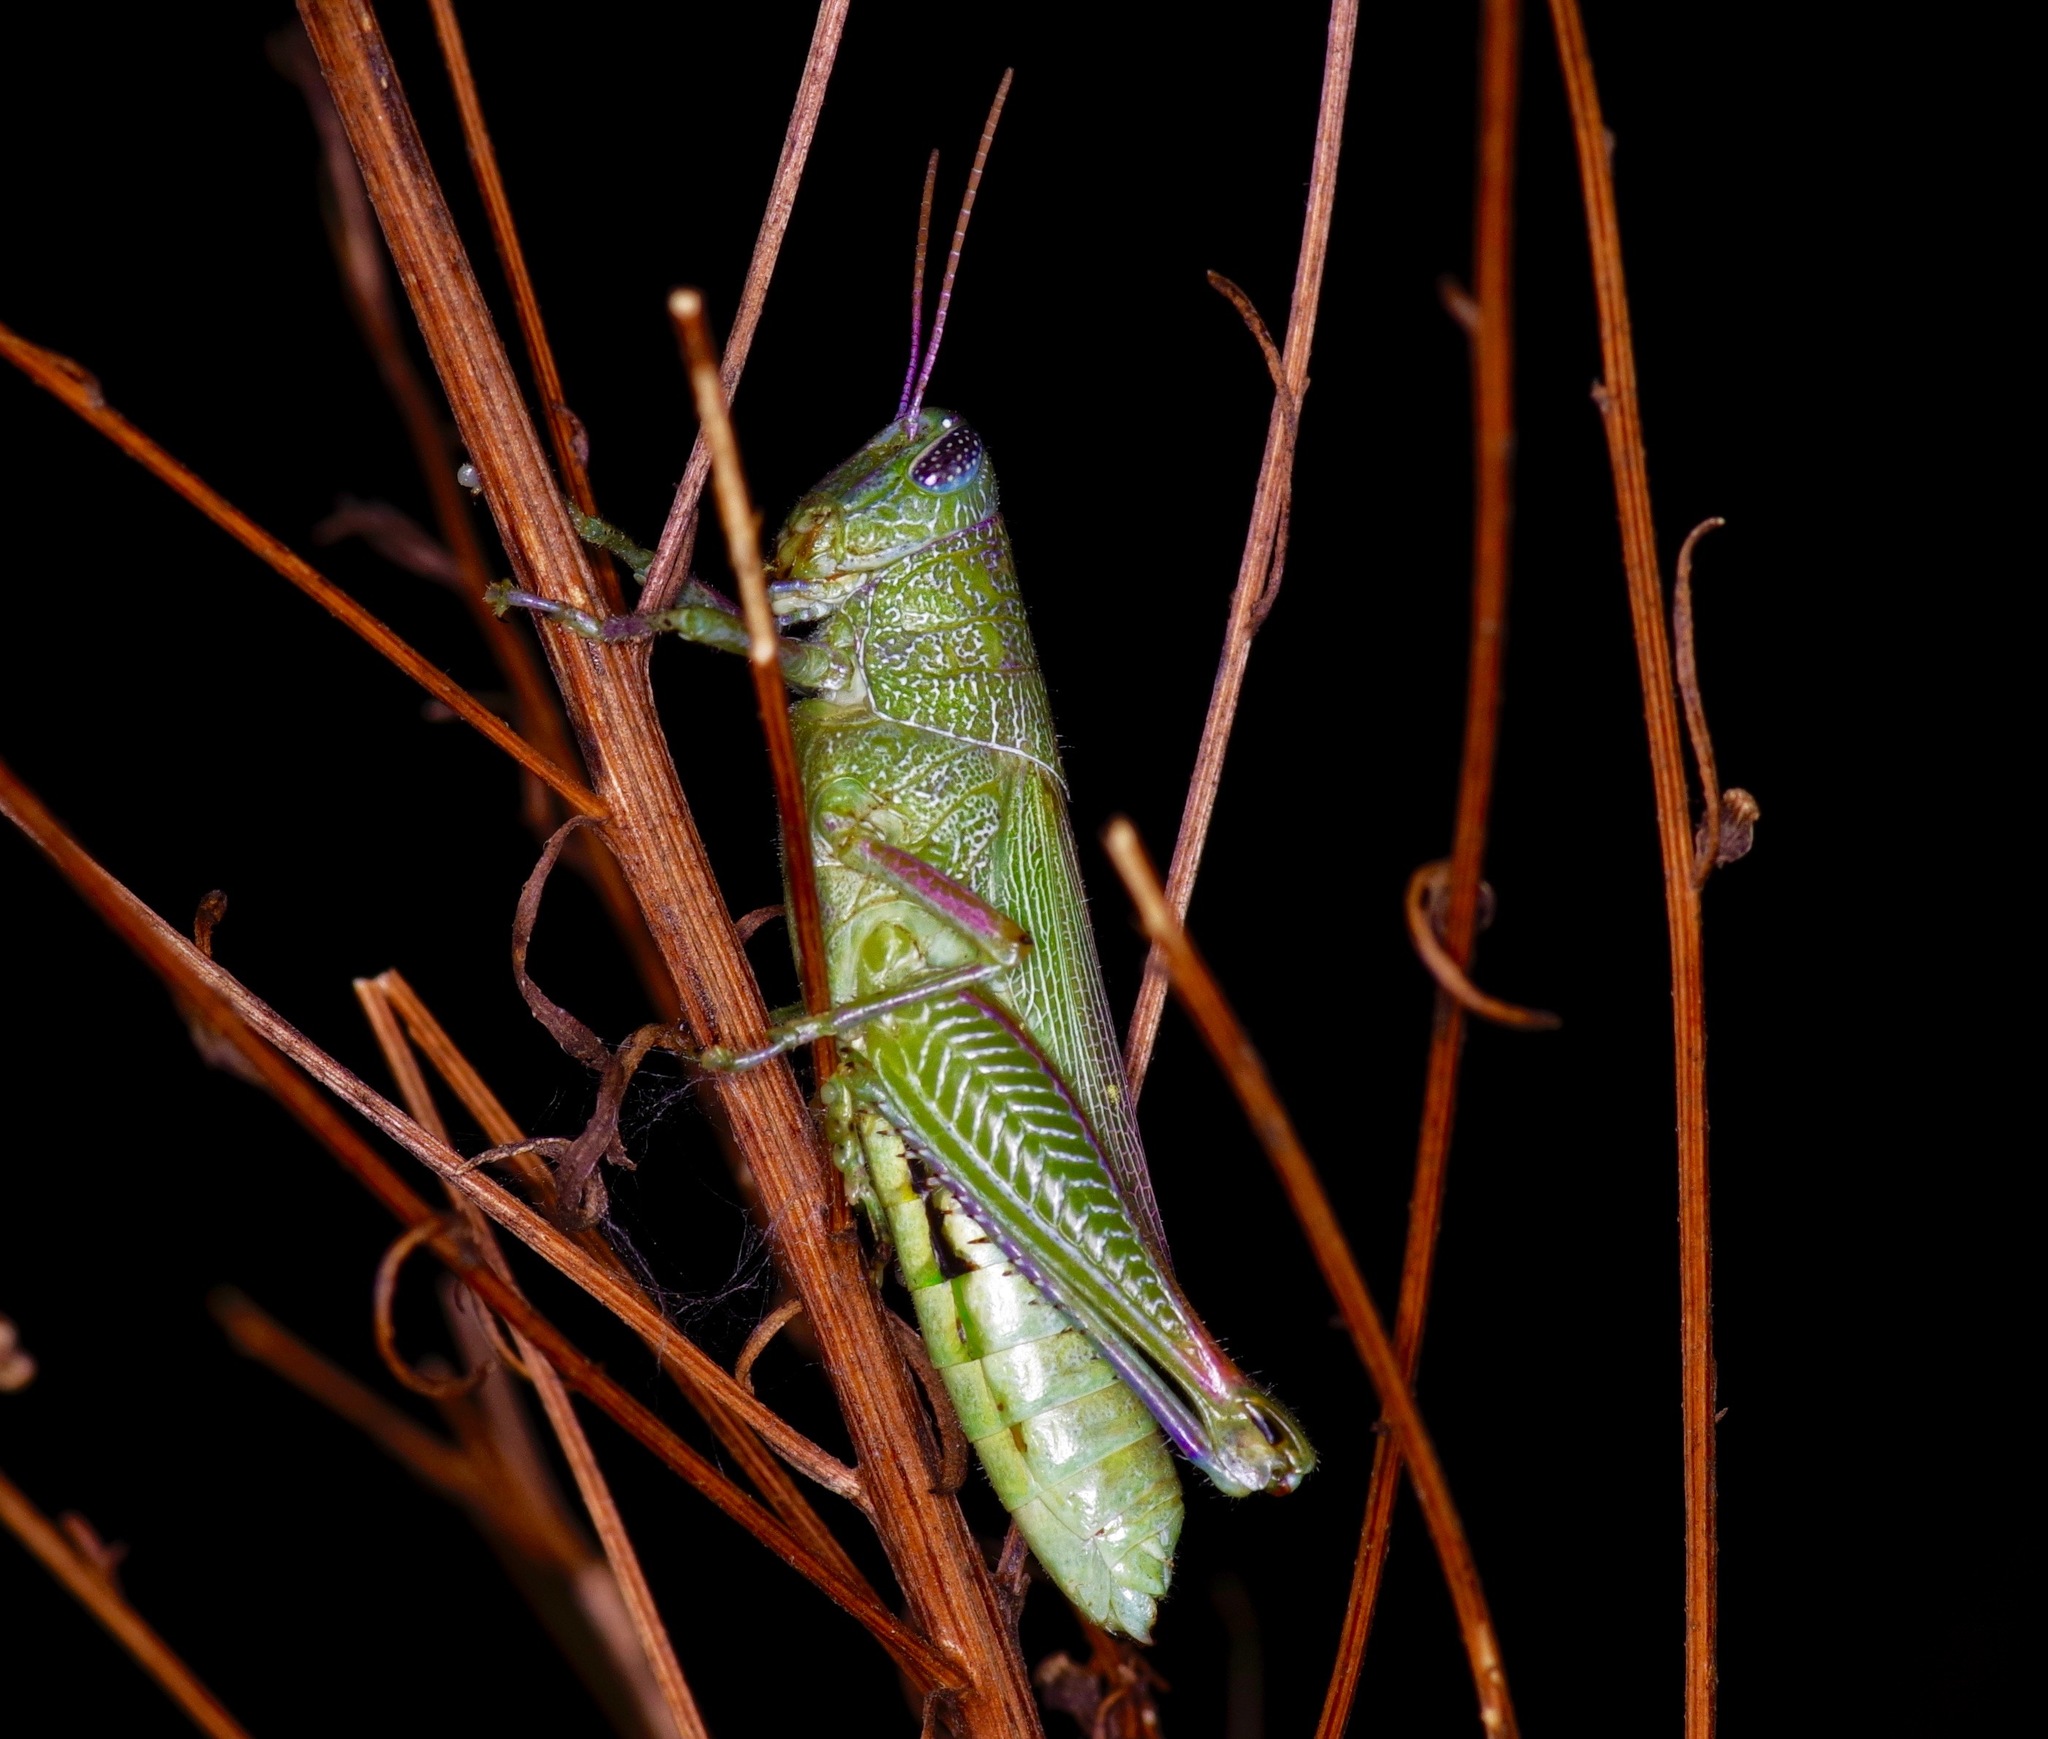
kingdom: Animalia
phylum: Arthropoda
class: Insecta
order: Orthoptera
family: Acrididae
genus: Hesperotettix
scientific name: Hesperotettix speciosus
